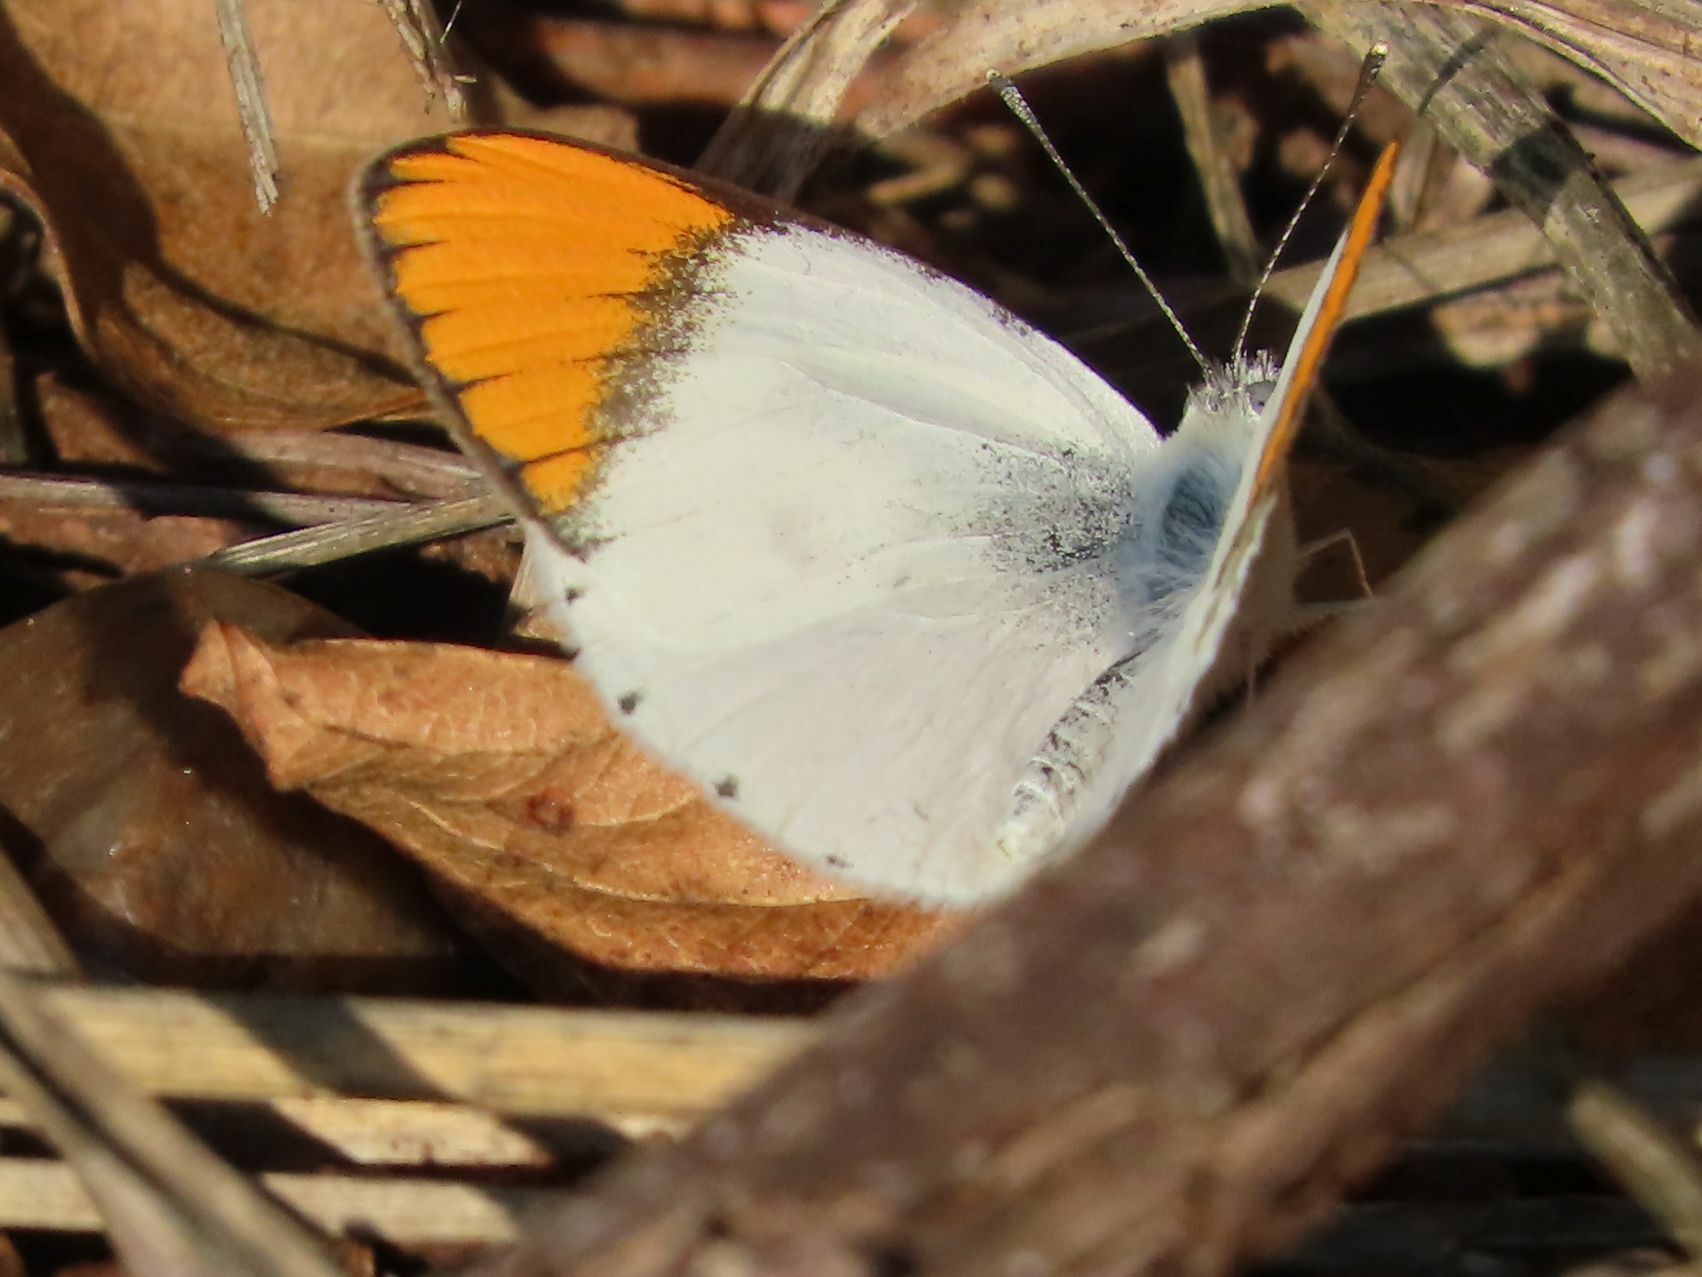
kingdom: Animalia
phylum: Arthropoda
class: Insecta
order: Lepidoptera
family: Pieridae
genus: Colotis
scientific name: Colotis evenina
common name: Common orange tip
